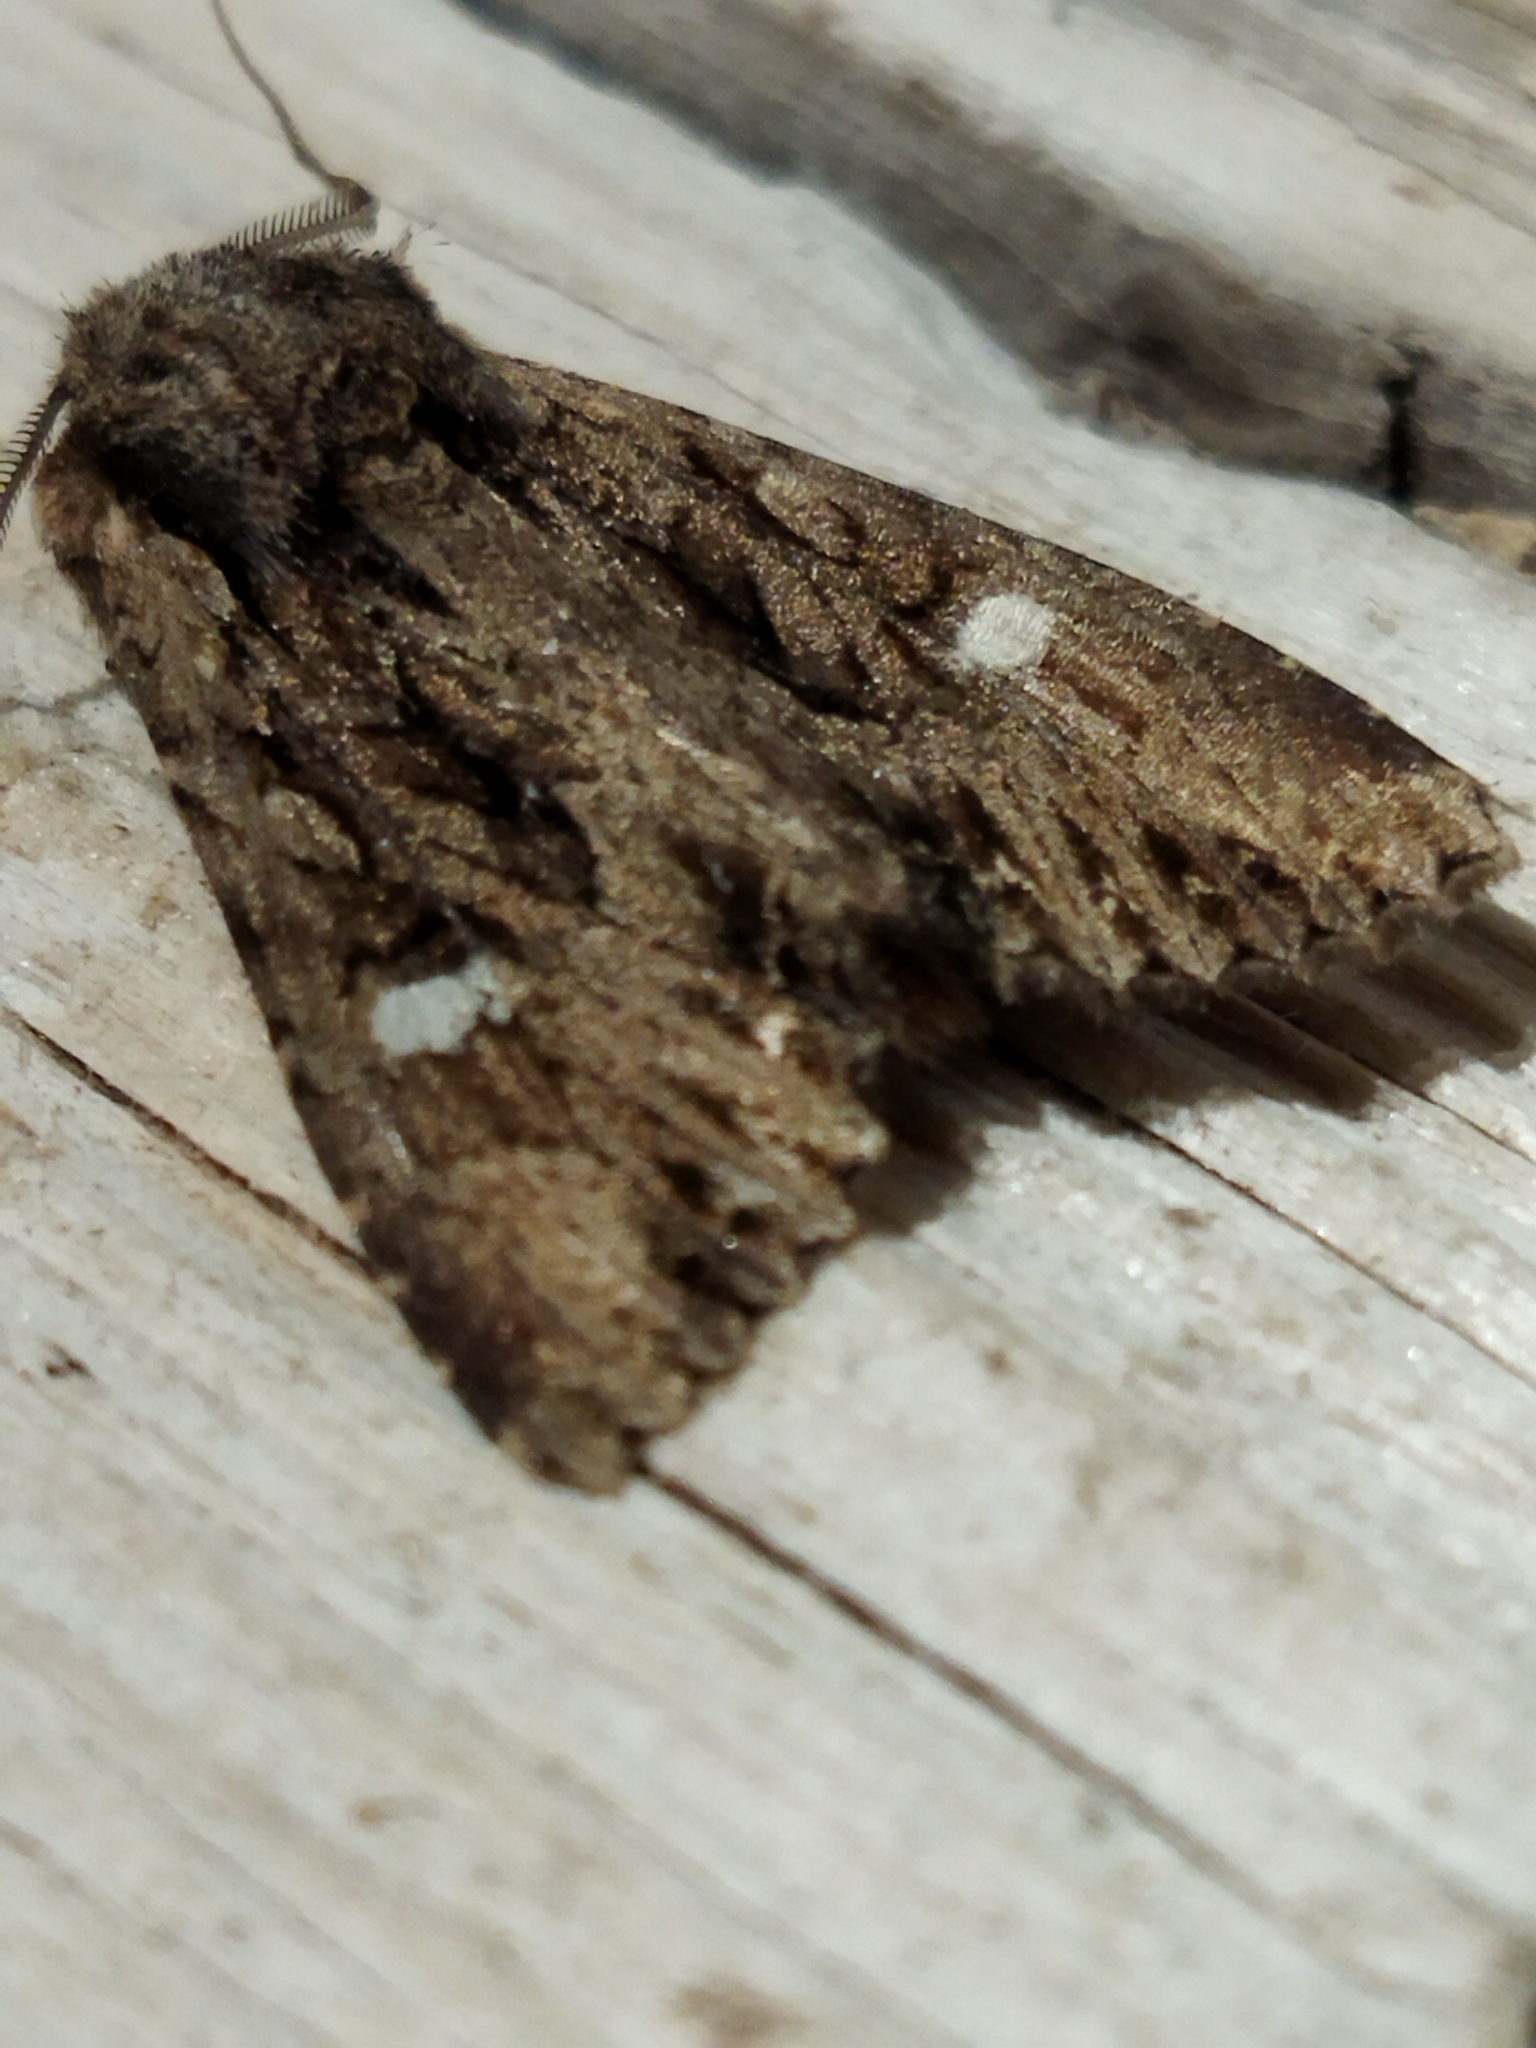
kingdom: Animalia
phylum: Arthropoda
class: Insecta
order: Lepidoptera
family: Noctuidae
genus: Polymixis
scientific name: Polymixis trisignata
